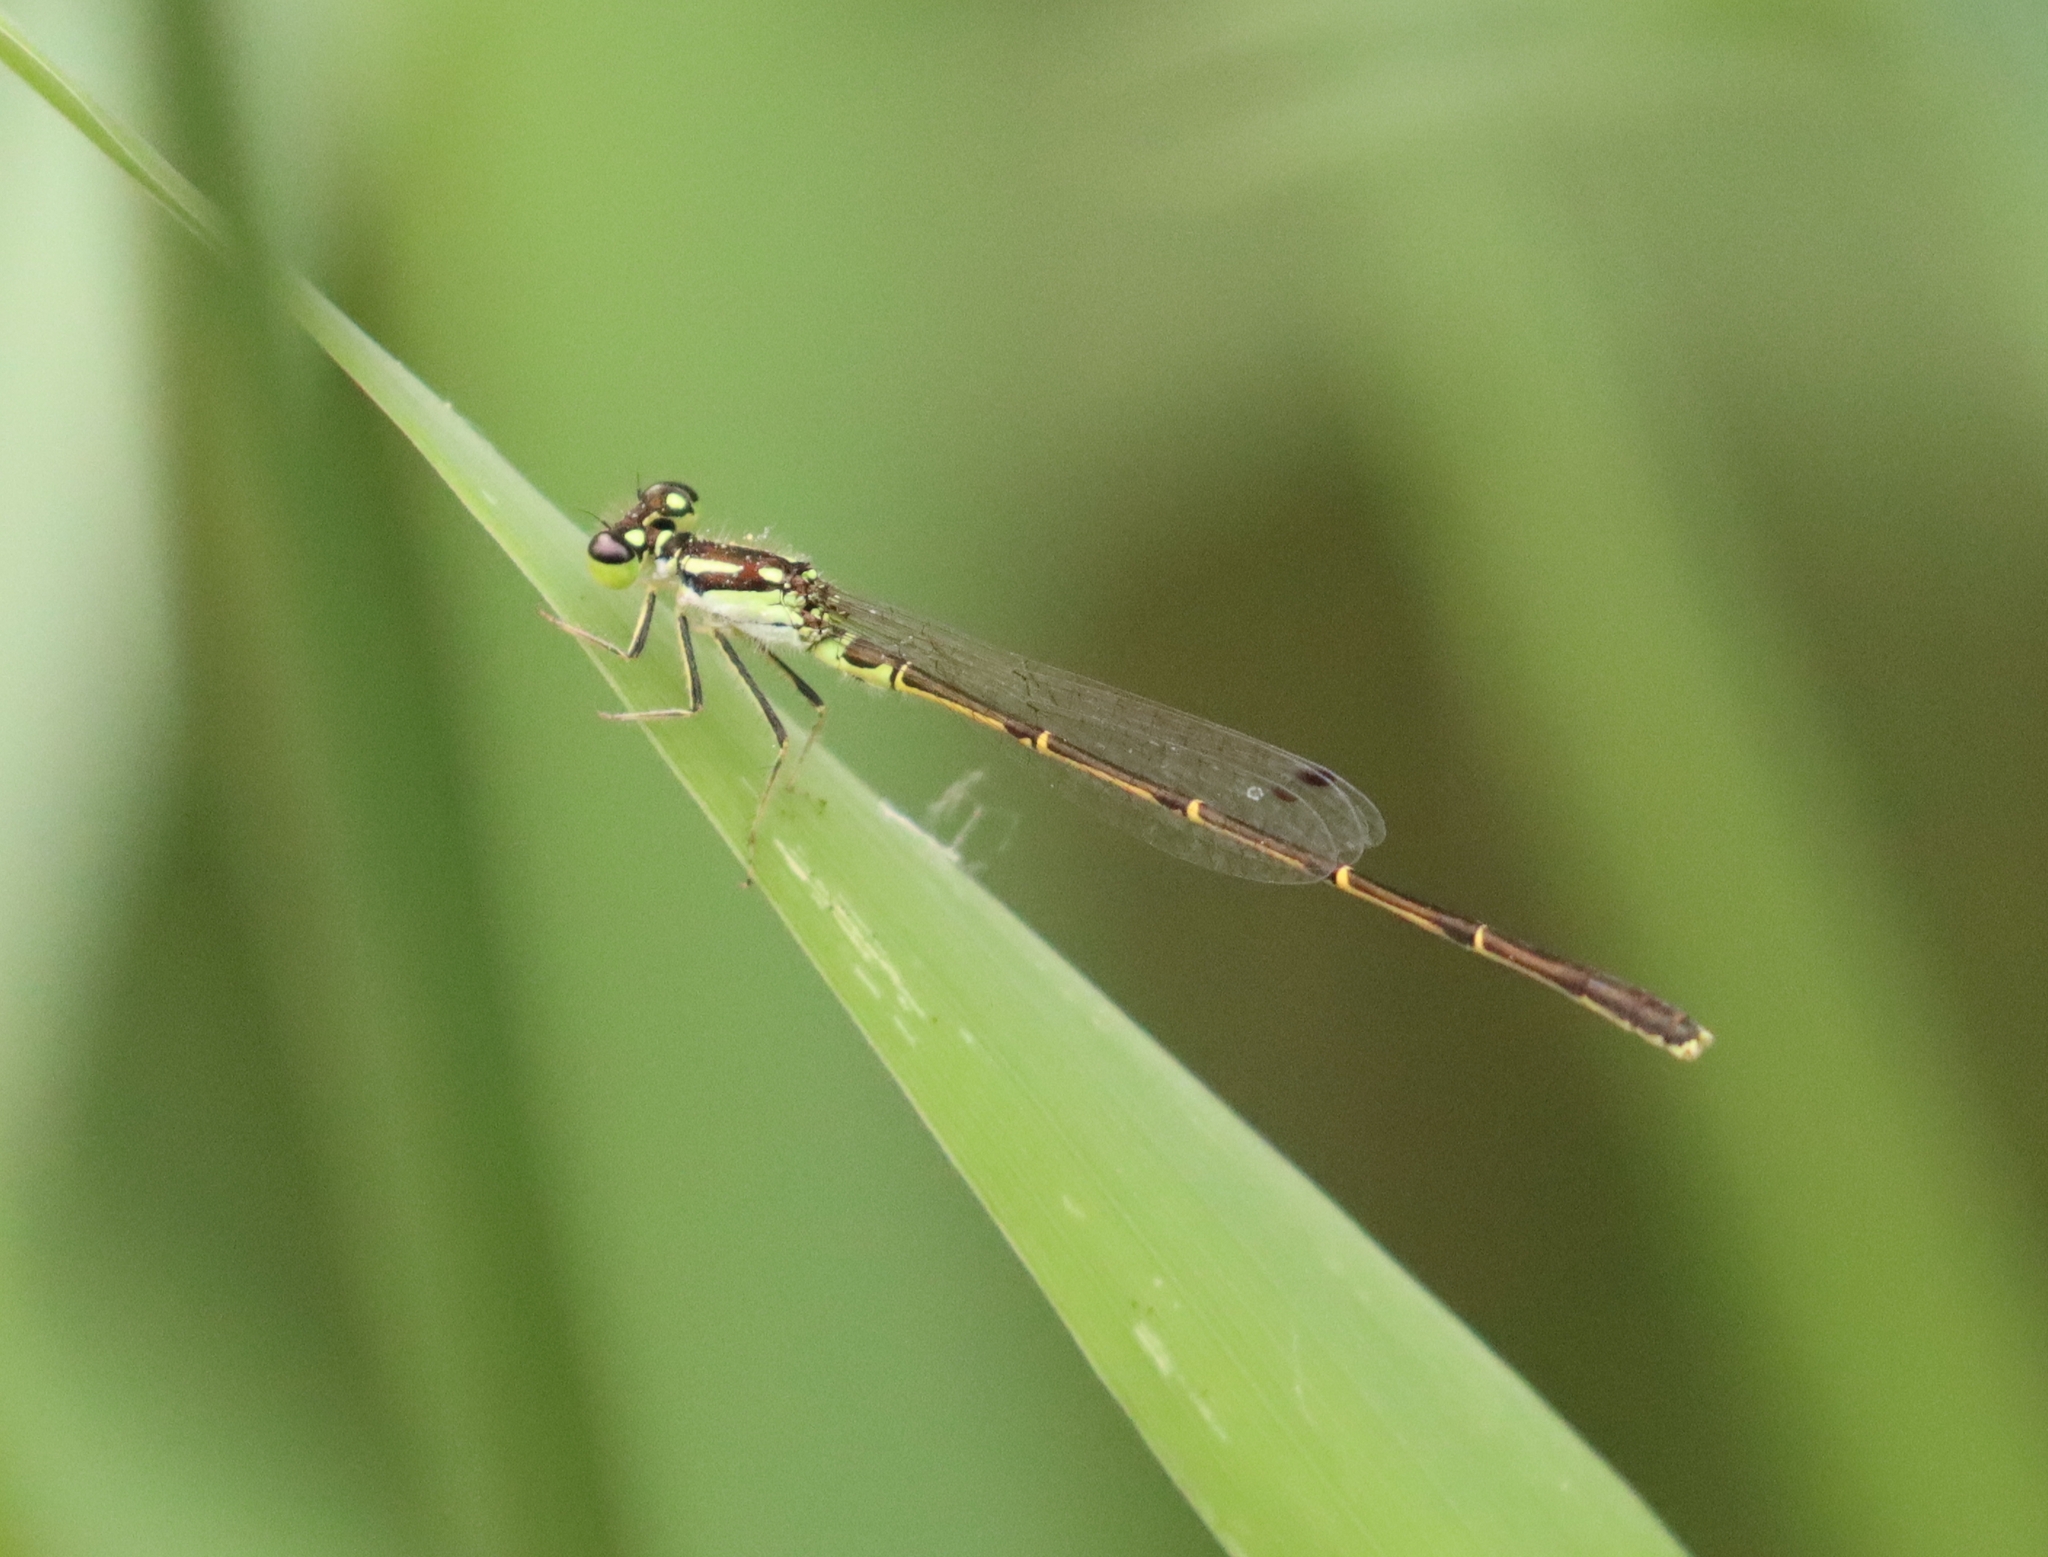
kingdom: Animalia
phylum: Arthropoda
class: Insecta
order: Odonata
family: Coenagrionidae
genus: Ischnura
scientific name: Ischnura posita
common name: Fragile forktail
